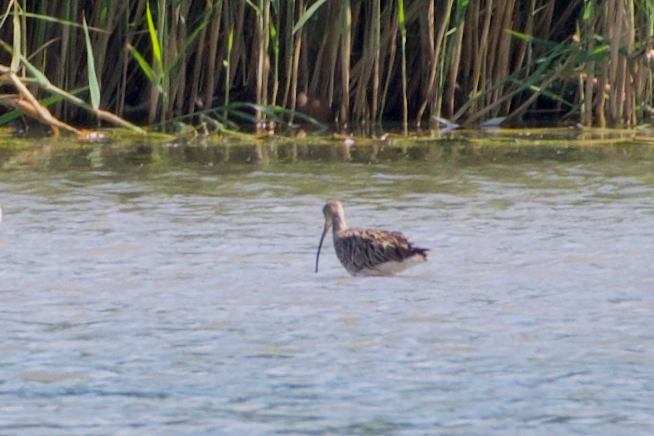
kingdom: Animalia
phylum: Chordata
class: Aves
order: Charadriiformes
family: Scolopacidae
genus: Numenius
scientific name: Numenius arquata
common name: Eurasian curlew
